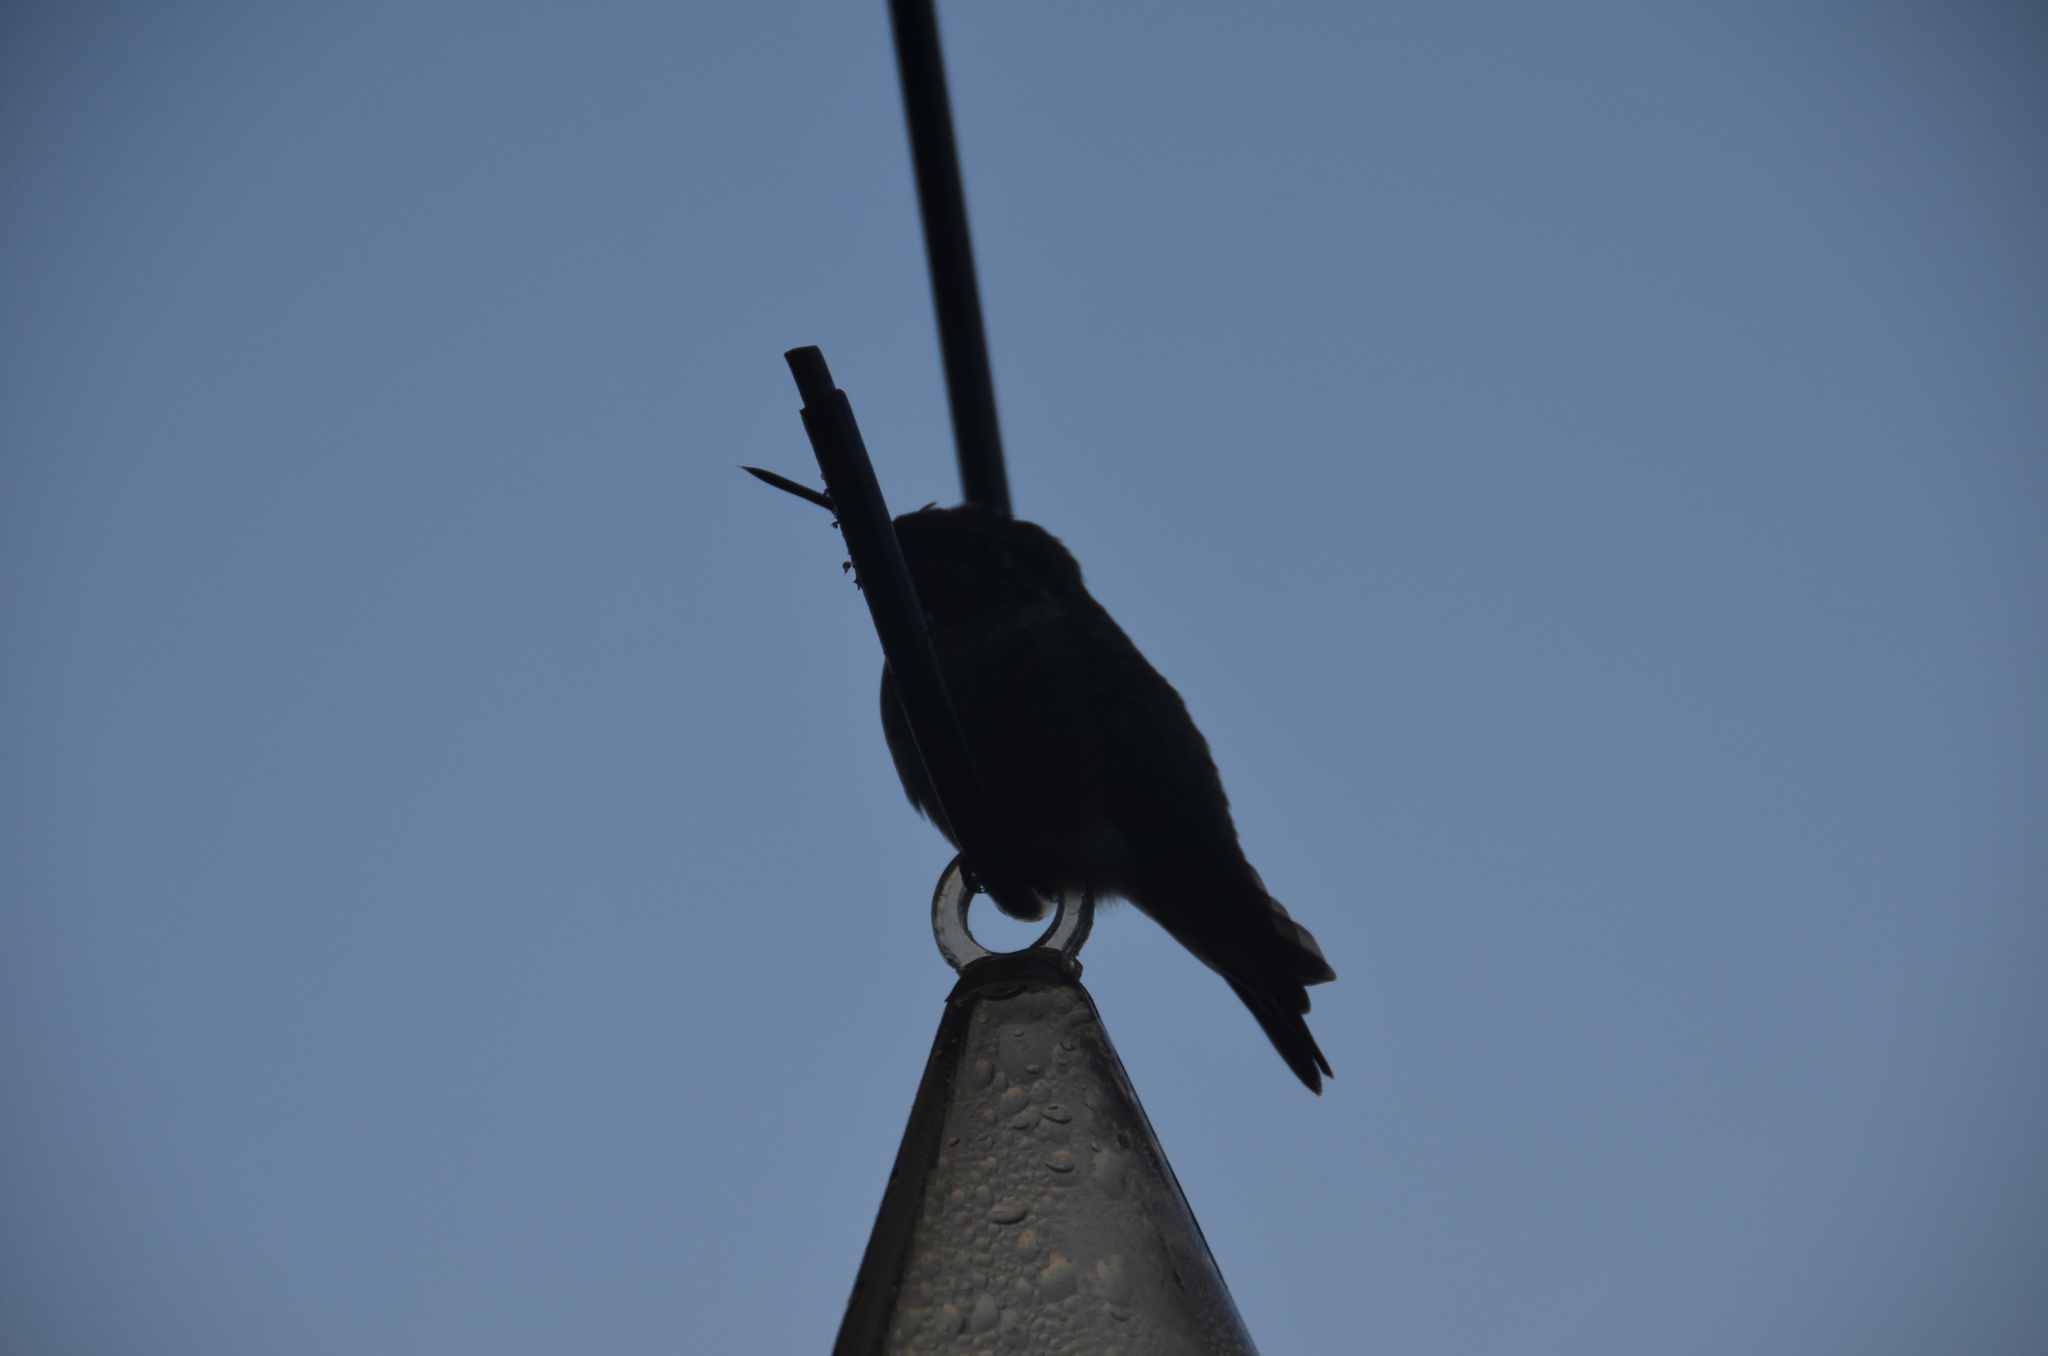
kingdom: Animalia
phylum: Chordata
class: Aves
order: Apodiformes
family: Trochilidae
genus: Calypte
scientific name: Calypte anna
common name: Anna's hummingbird
